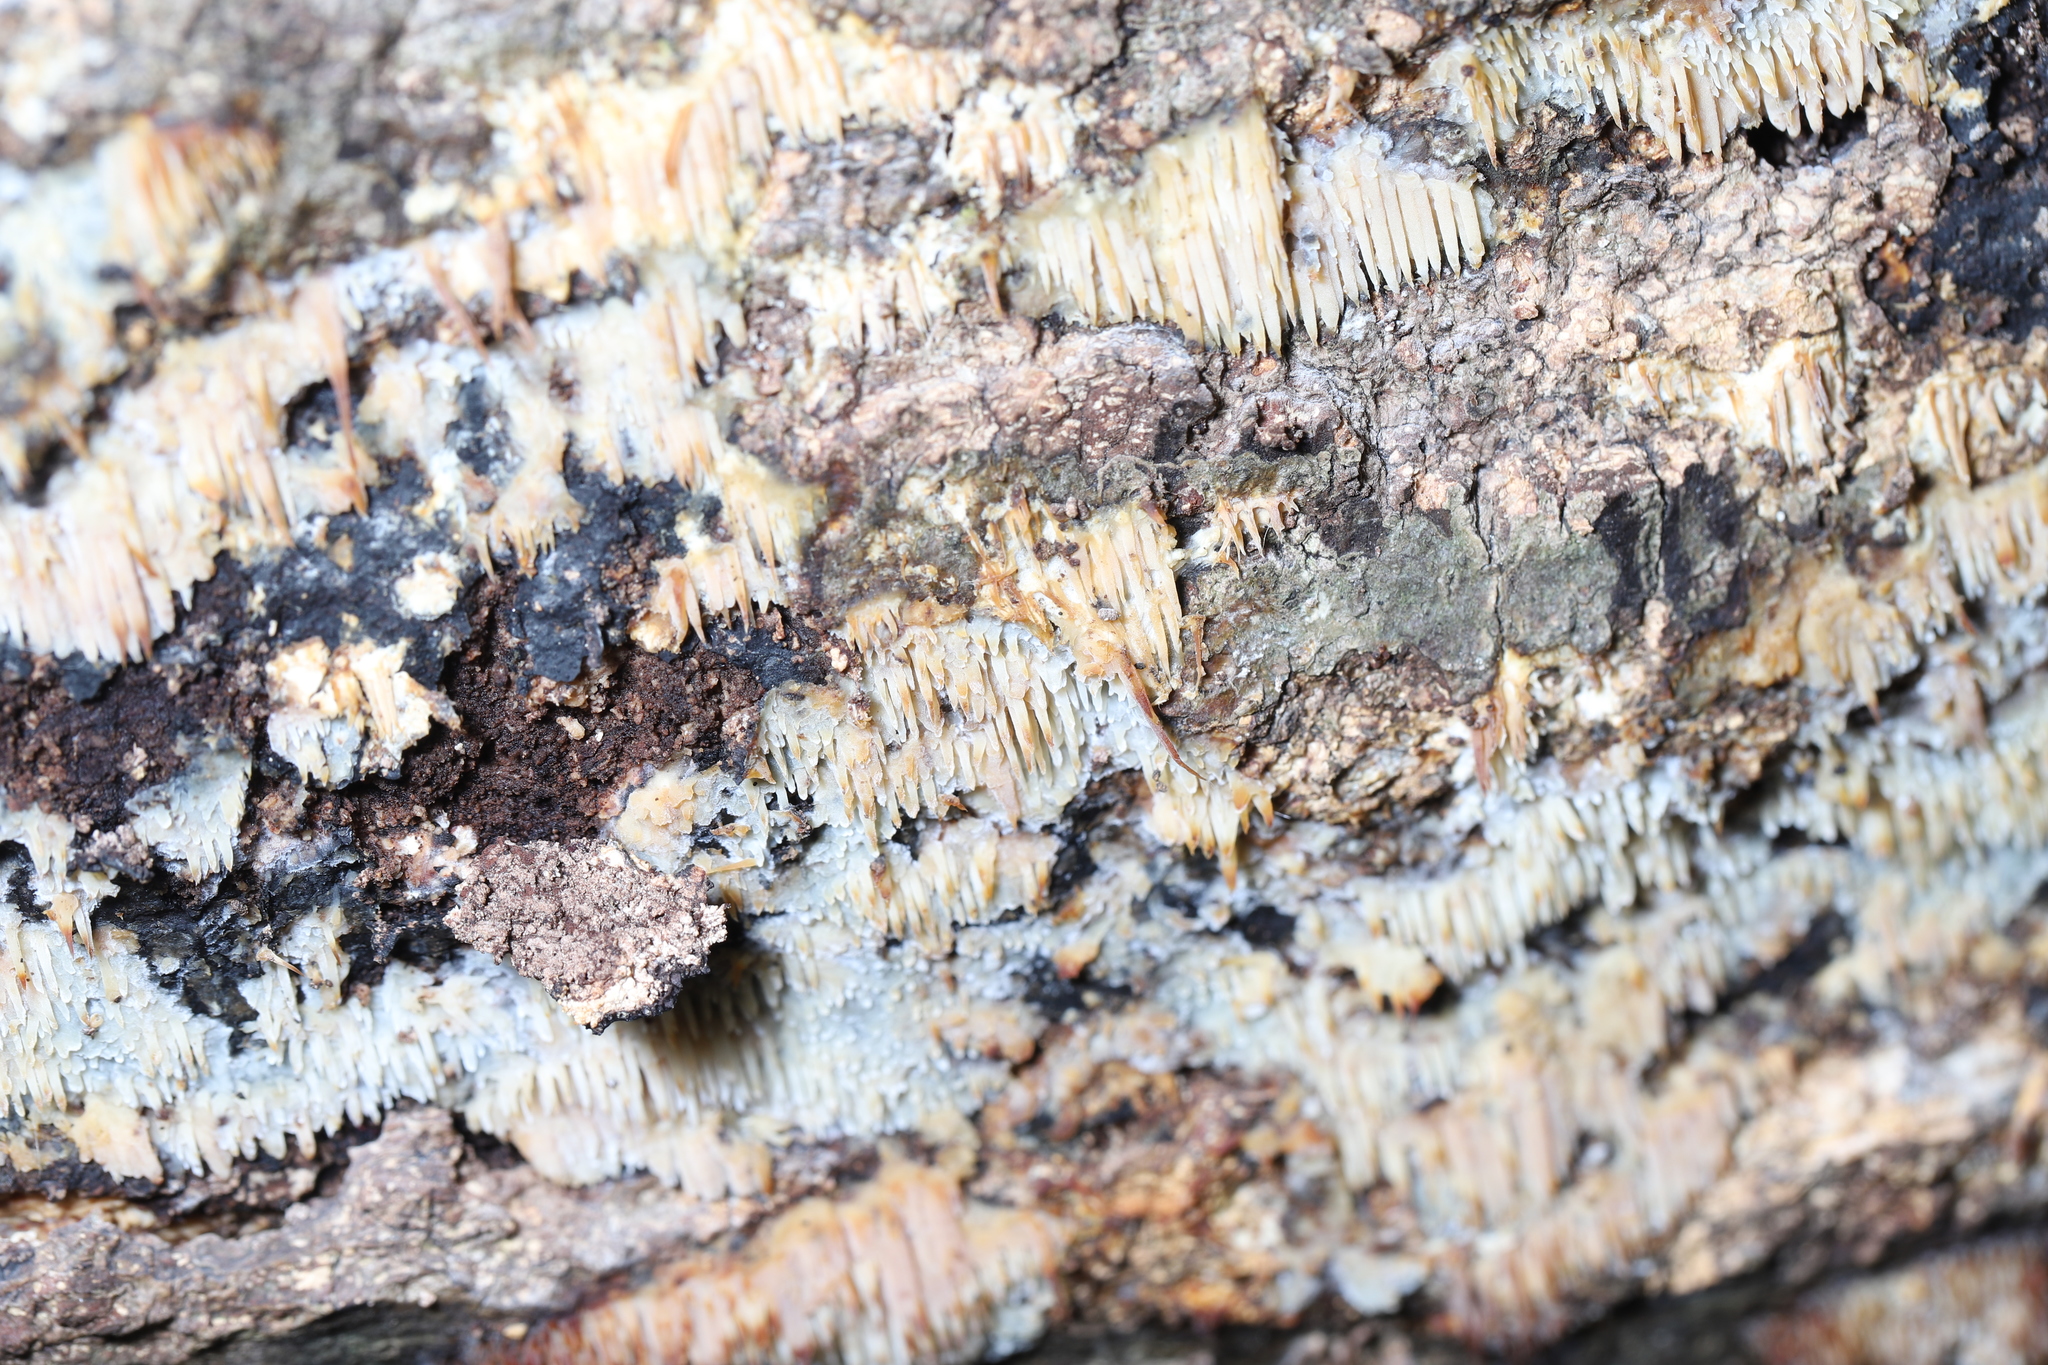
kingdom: Fungi
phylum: Basidiomycota
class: Agaricomycetes
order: Agaricales
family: Radulomycetaceae
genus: Radulomyces
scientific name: Radulomyces copelandii
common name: Asian beauty
